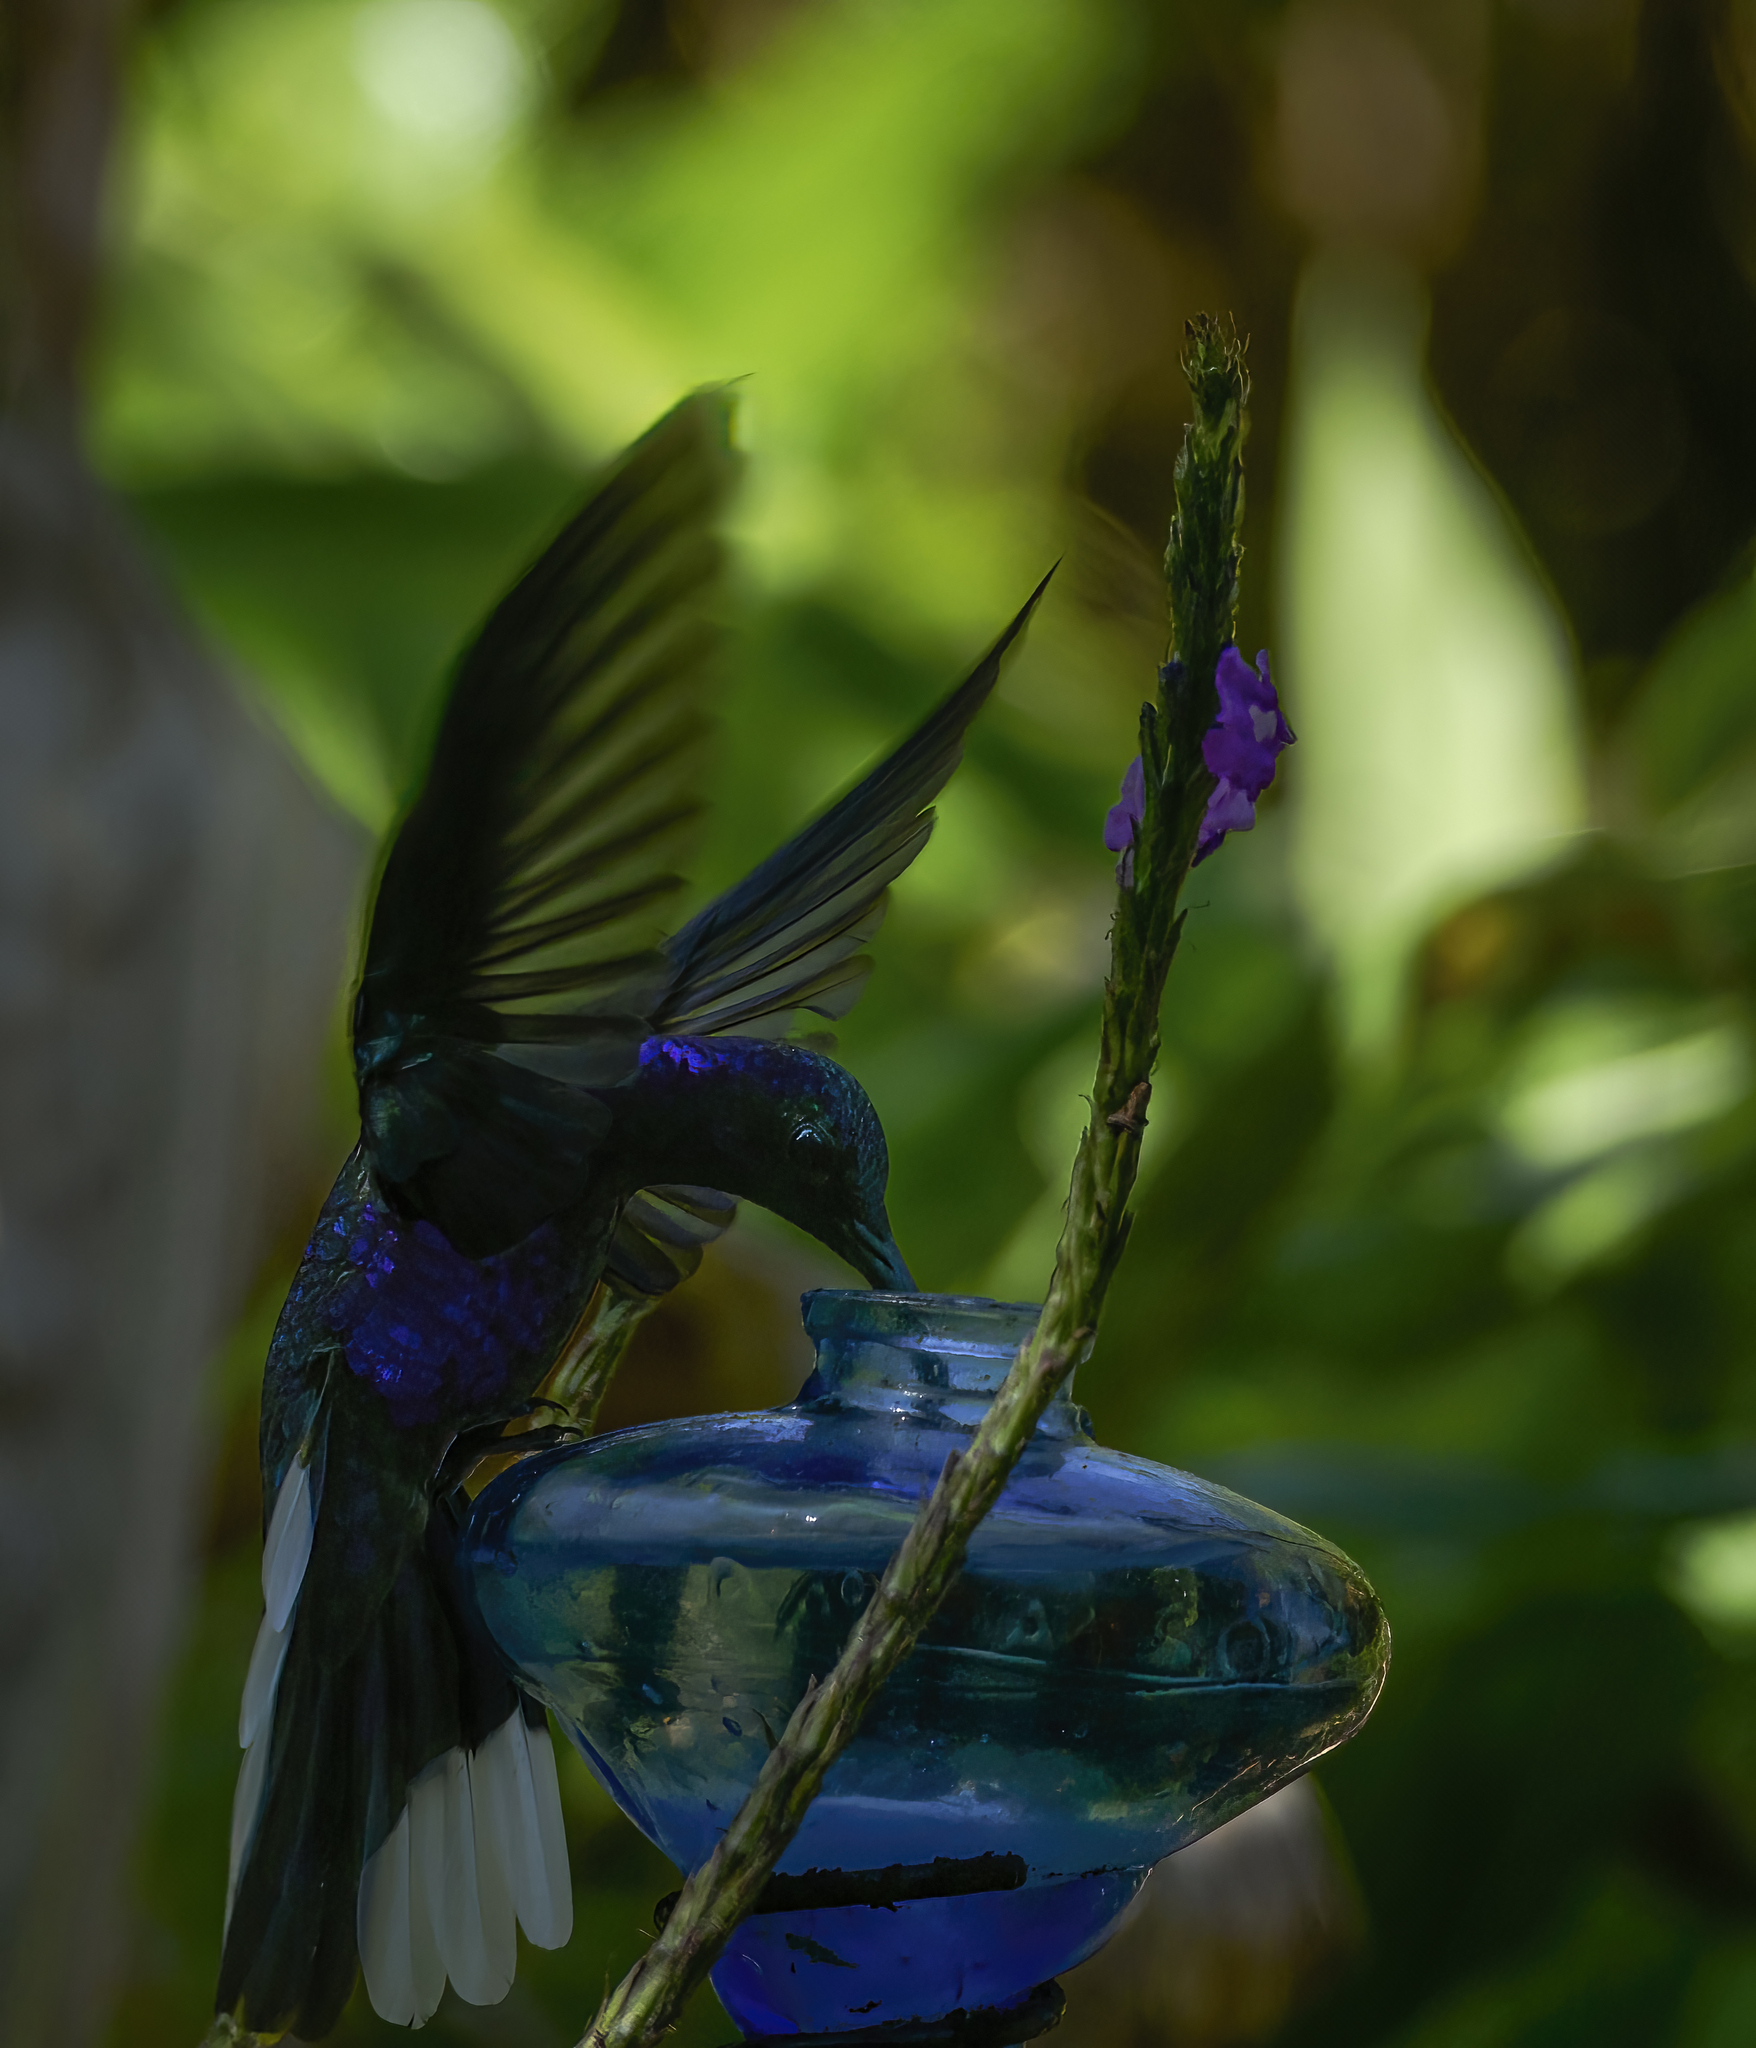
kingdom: Animalia
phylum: Chordata
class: Aves
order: Apodiformes
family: Trochilidae
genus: Campylopterus
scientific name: Campylopterus hemileucurus
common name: Violet sabrewing
